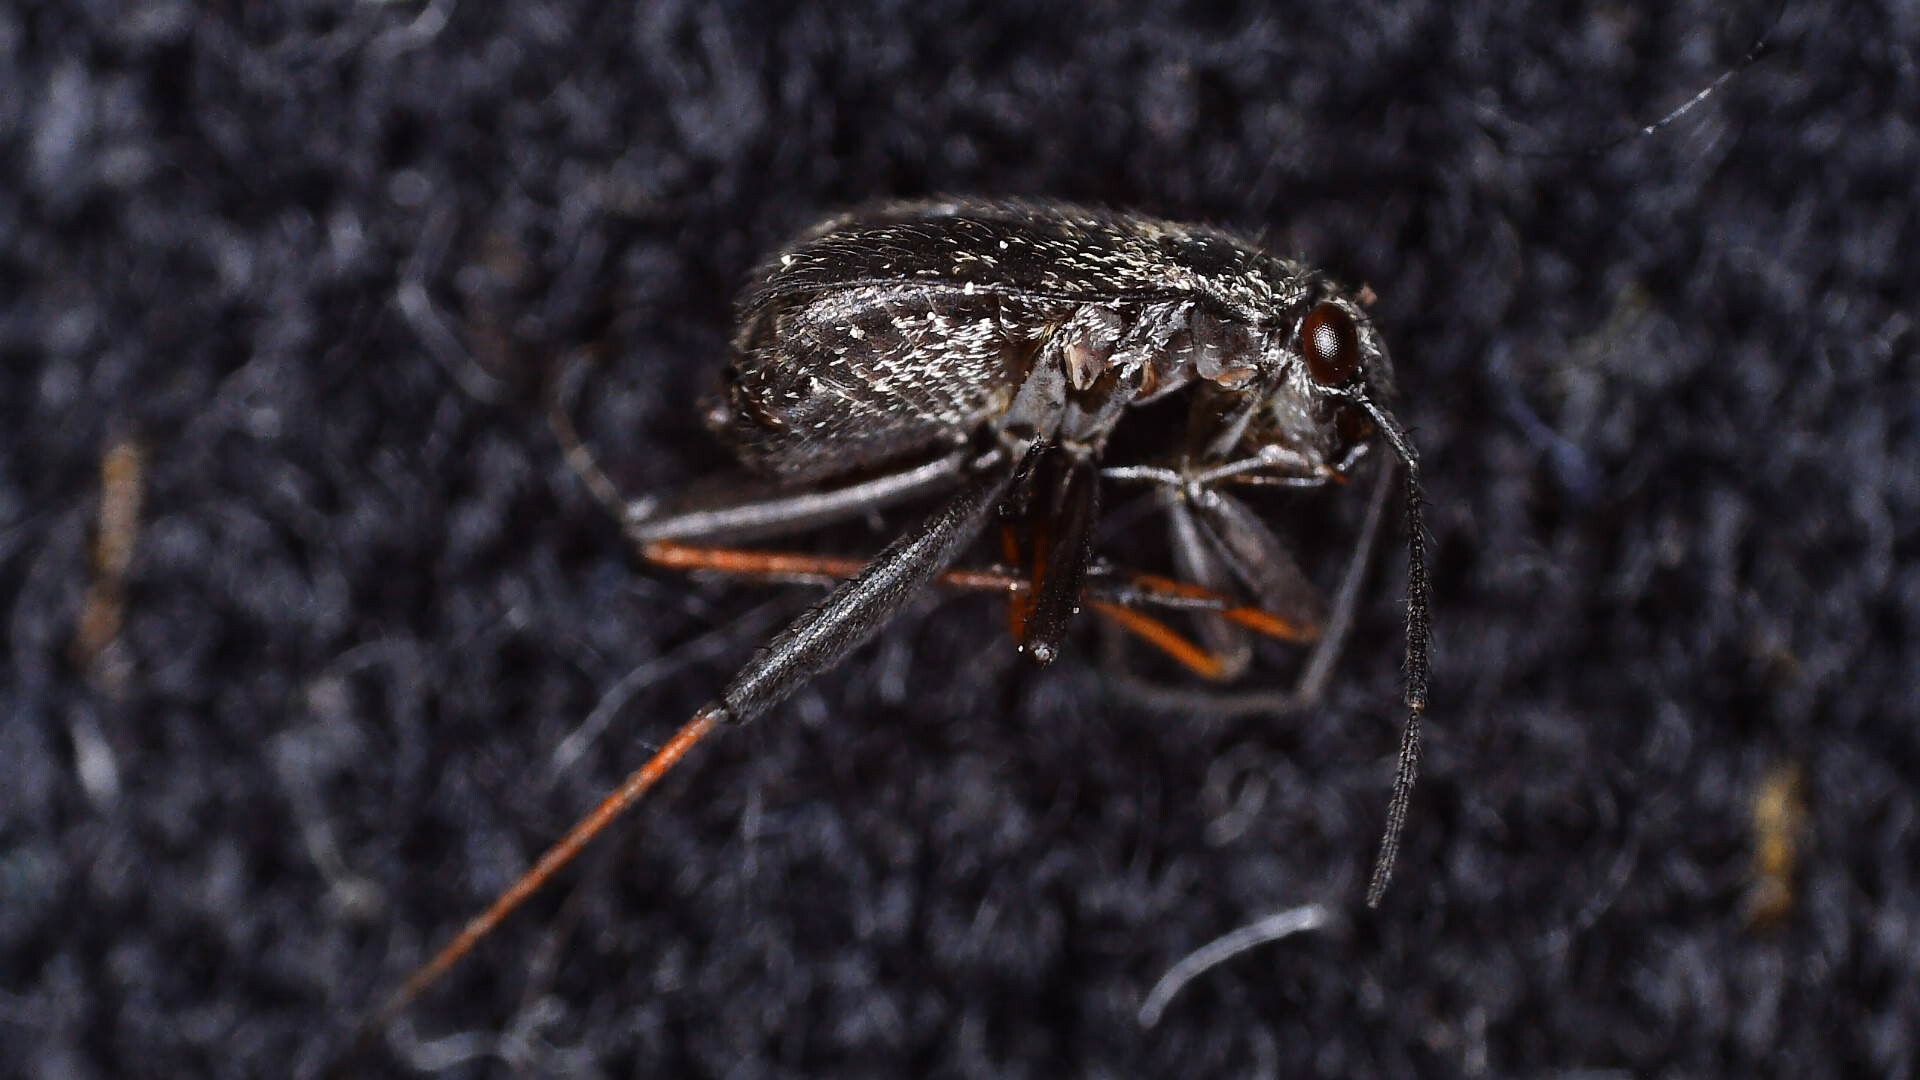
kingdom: Animalia
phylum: Arthropoda
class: Insecta
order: Hemiptera
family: Miridae
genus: Orthocephalus
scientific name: Orthocephalus saltator
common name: Plant bug
